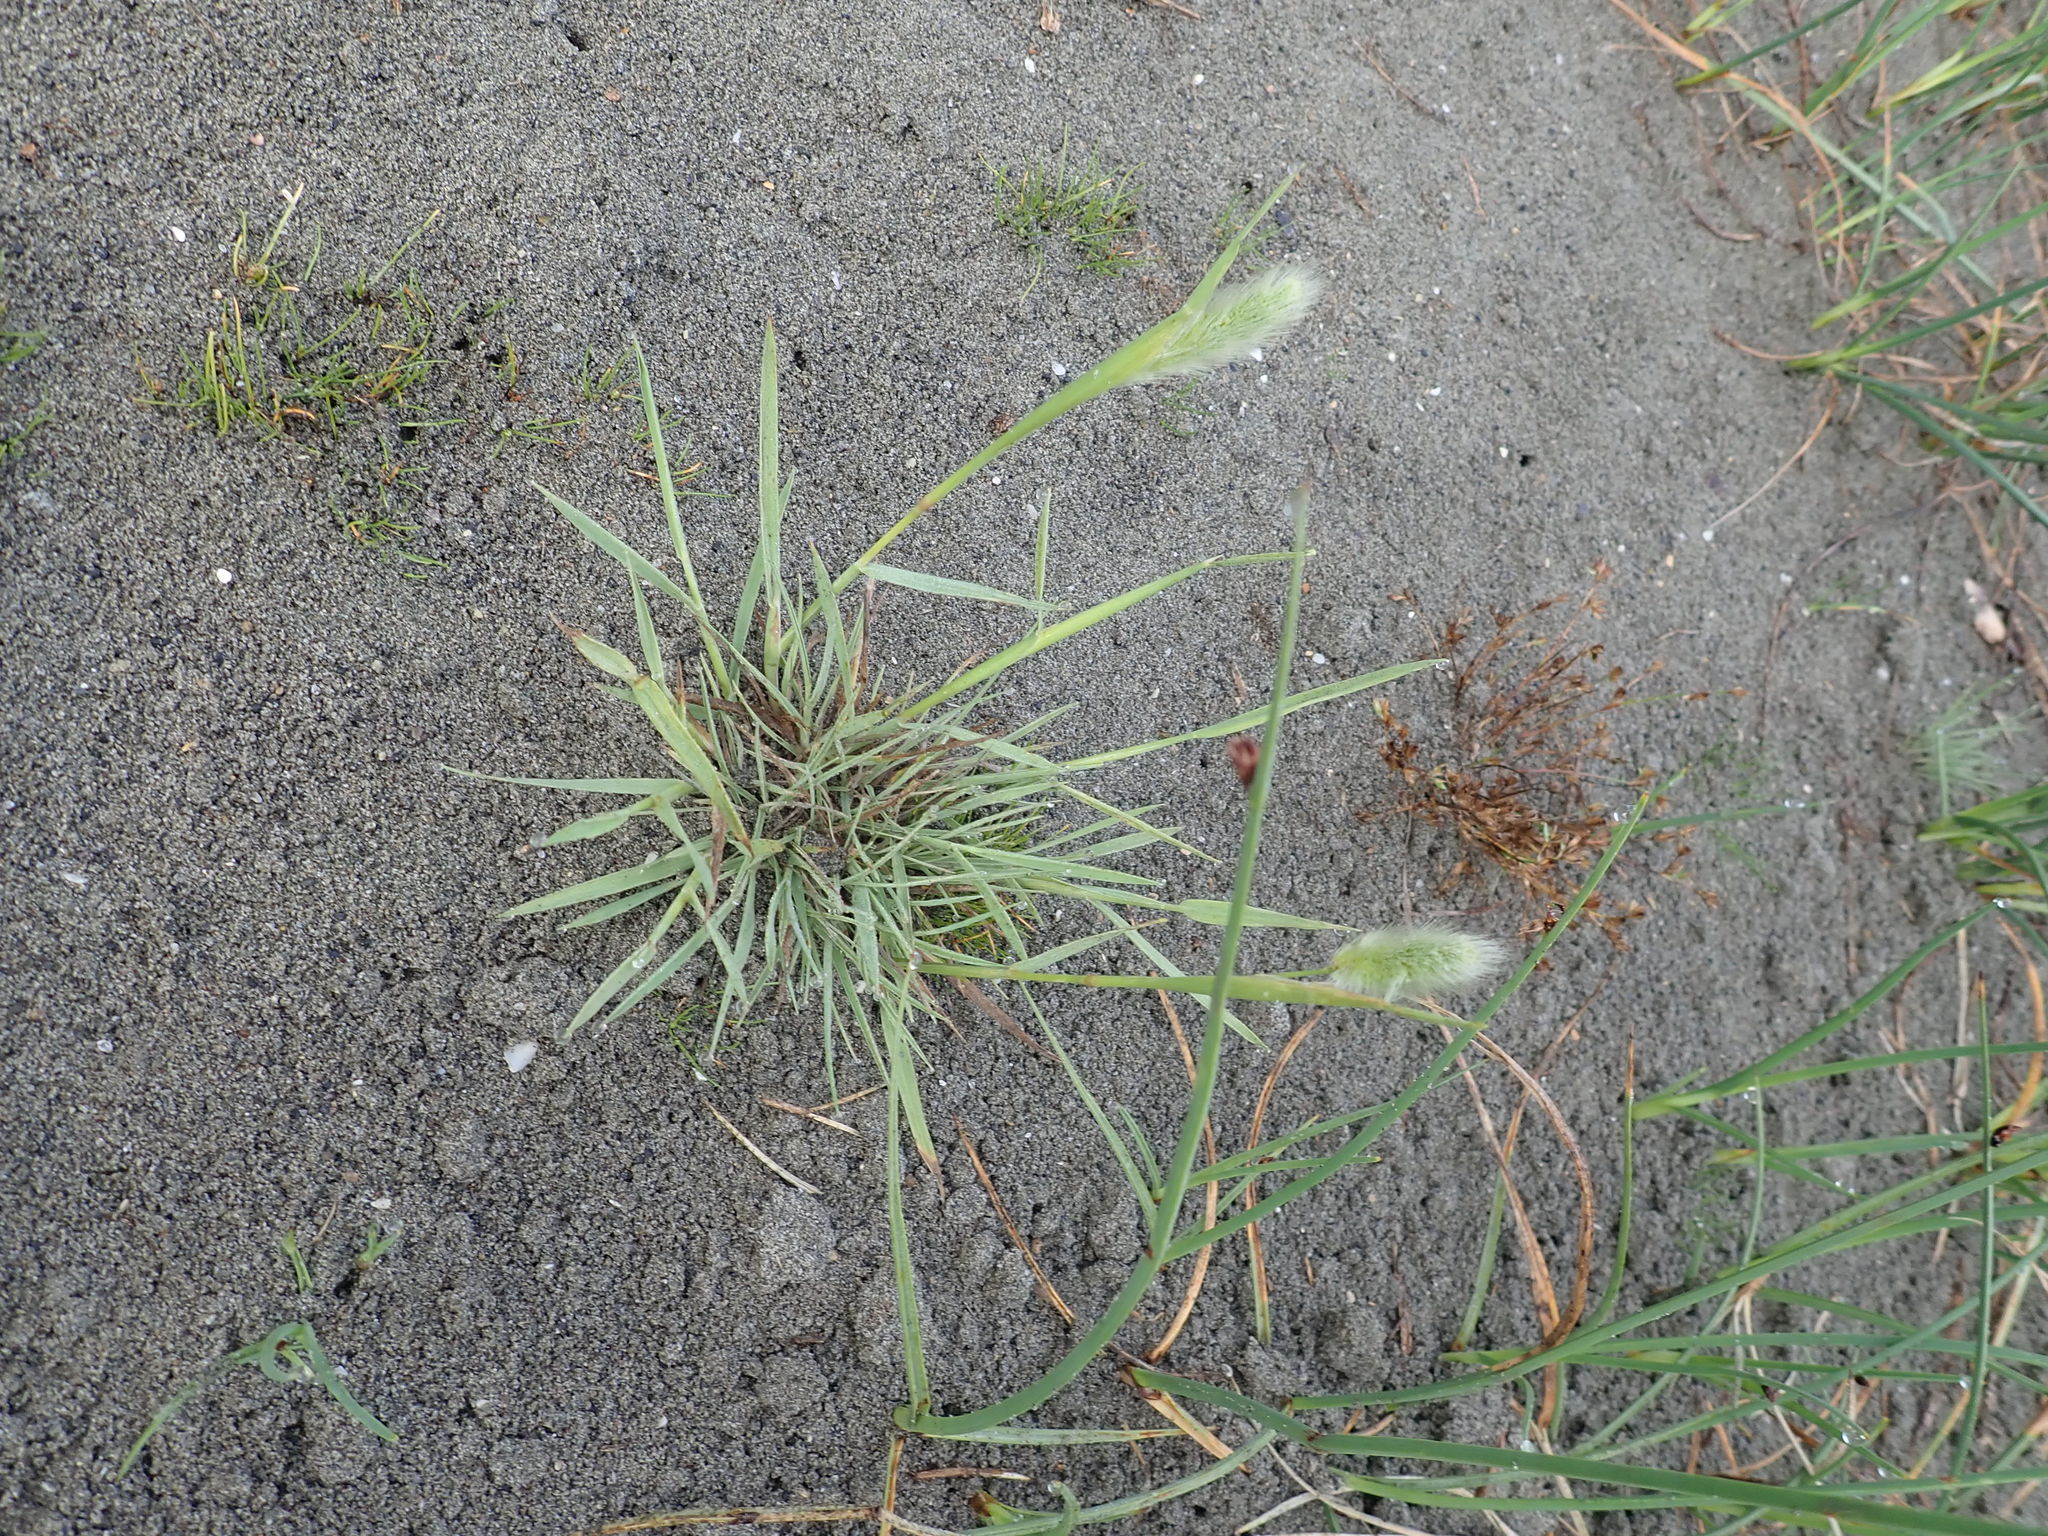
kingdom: Plantae
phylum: Tracheophyta
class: Liliopsida
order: Poales
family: Poaceae
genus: Polypogon
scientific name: Polypogon monspeliensis
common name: Annual rabbitsfoot grass
